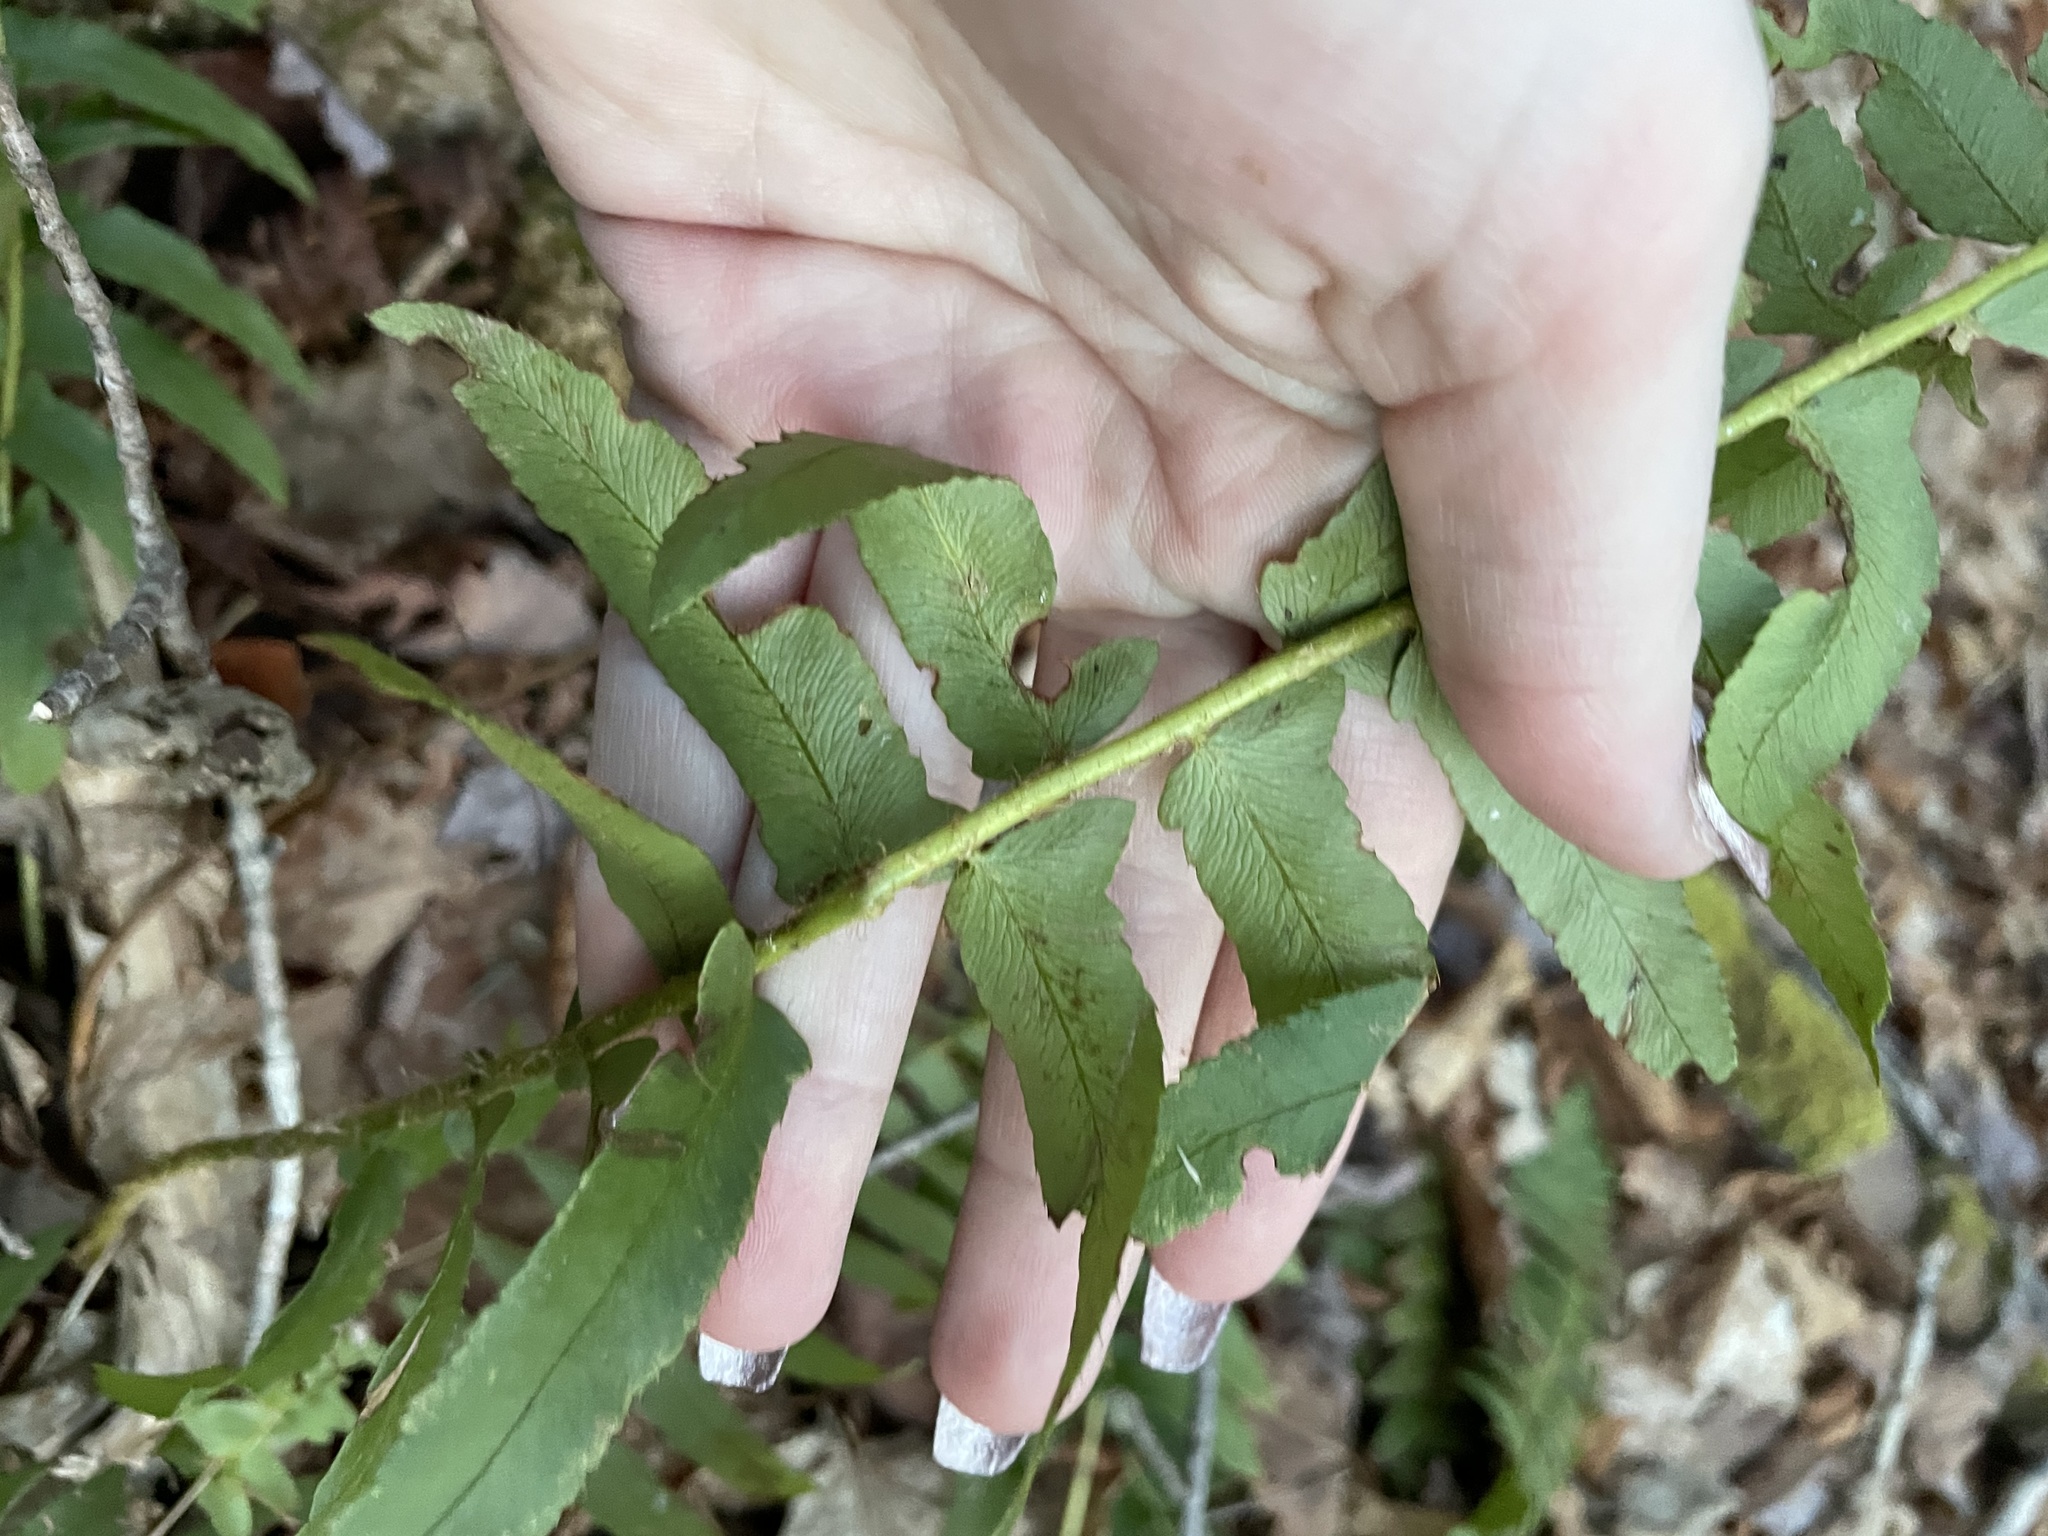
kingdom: Plantae
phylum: Tracheophyta
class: Polypodiopsida
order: Polypodiales
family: Dryopteridaceae
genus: Polystichum
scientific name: Polystichum acrostichoides
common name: Christmas fern
